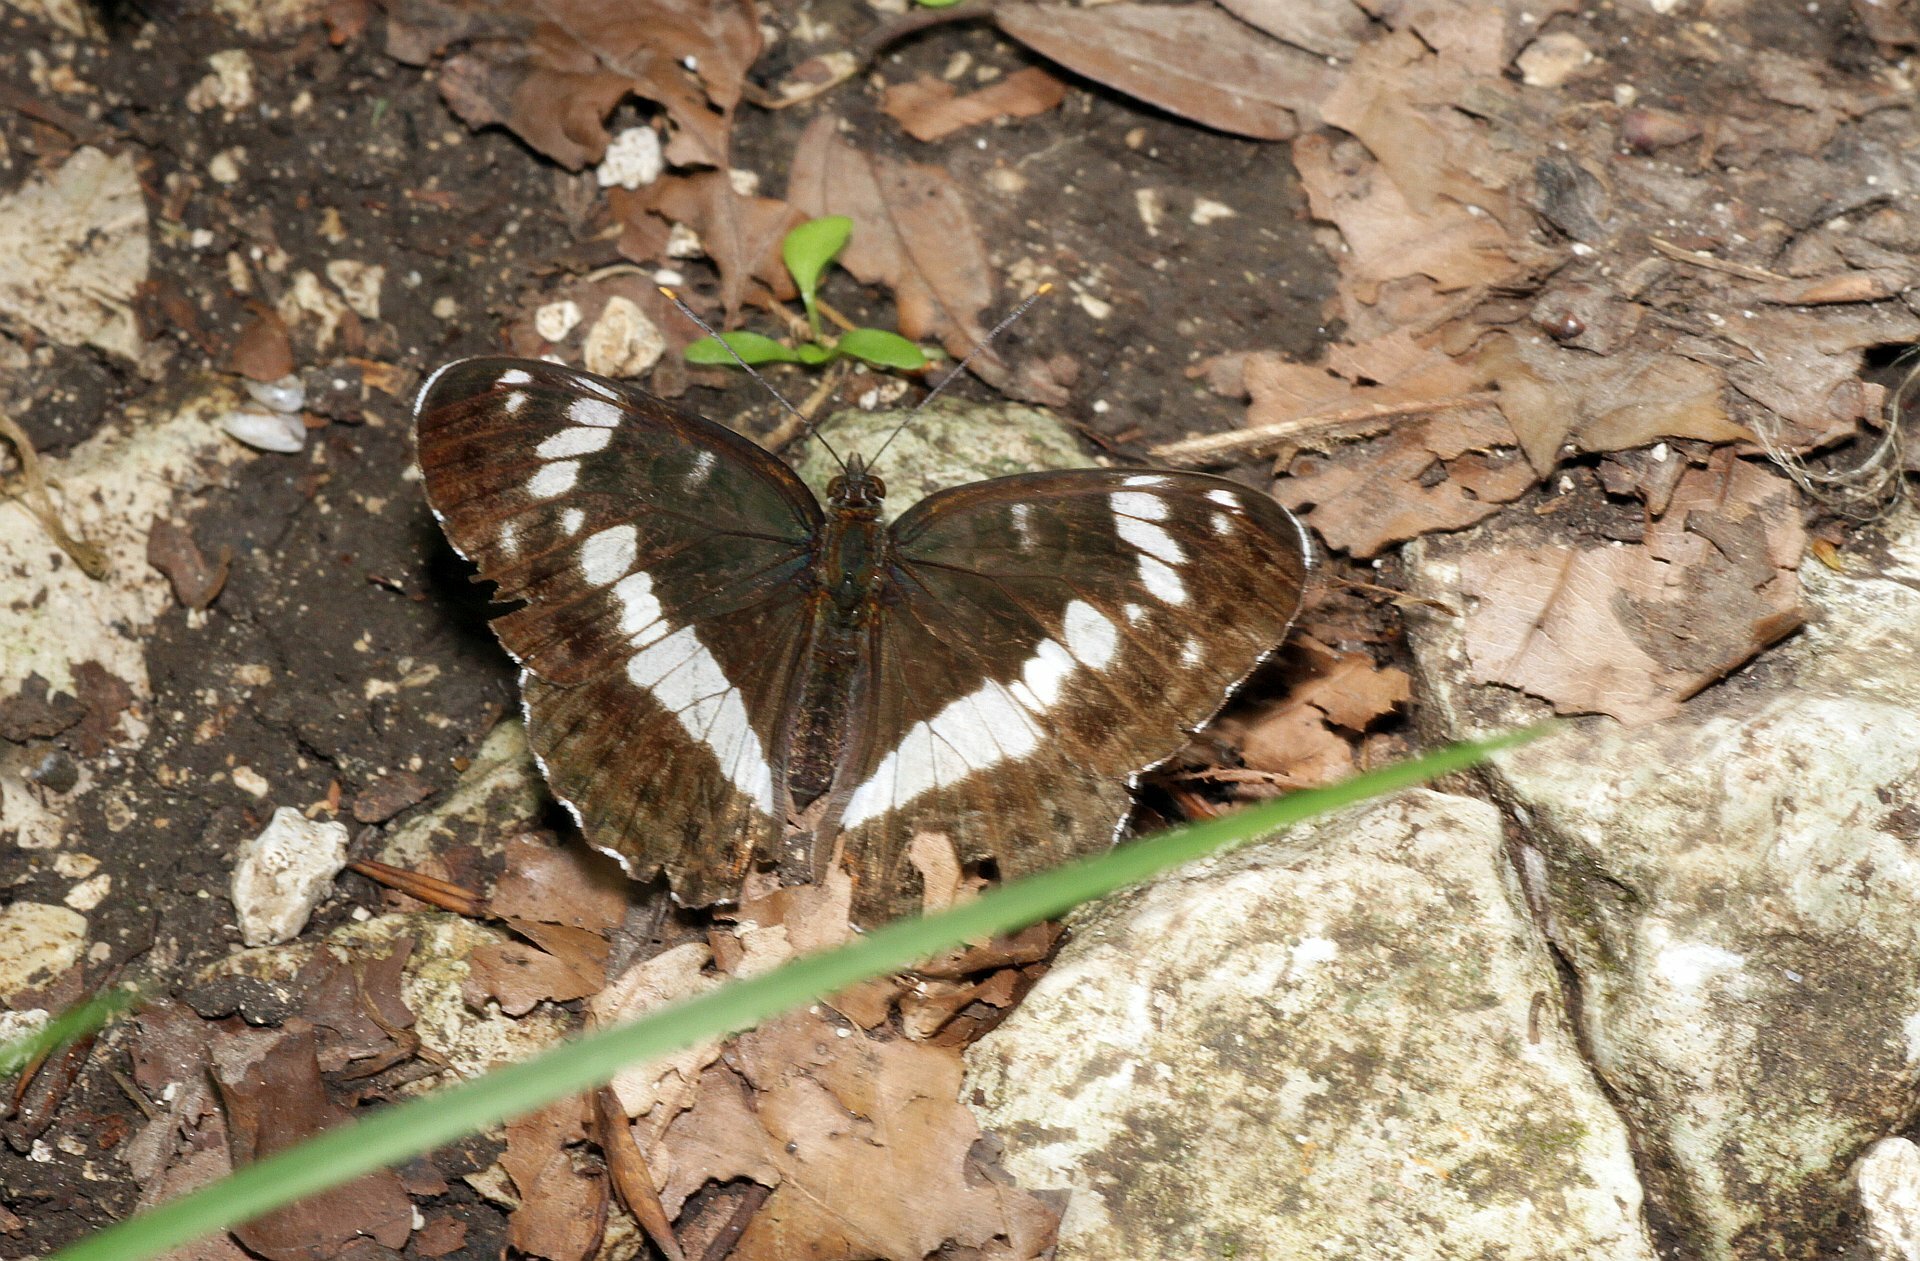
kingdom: Animalia
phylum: Arthropoda
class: Insecta
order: Lepidoptera
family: Nymphalidae
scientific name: Nymphalidae
